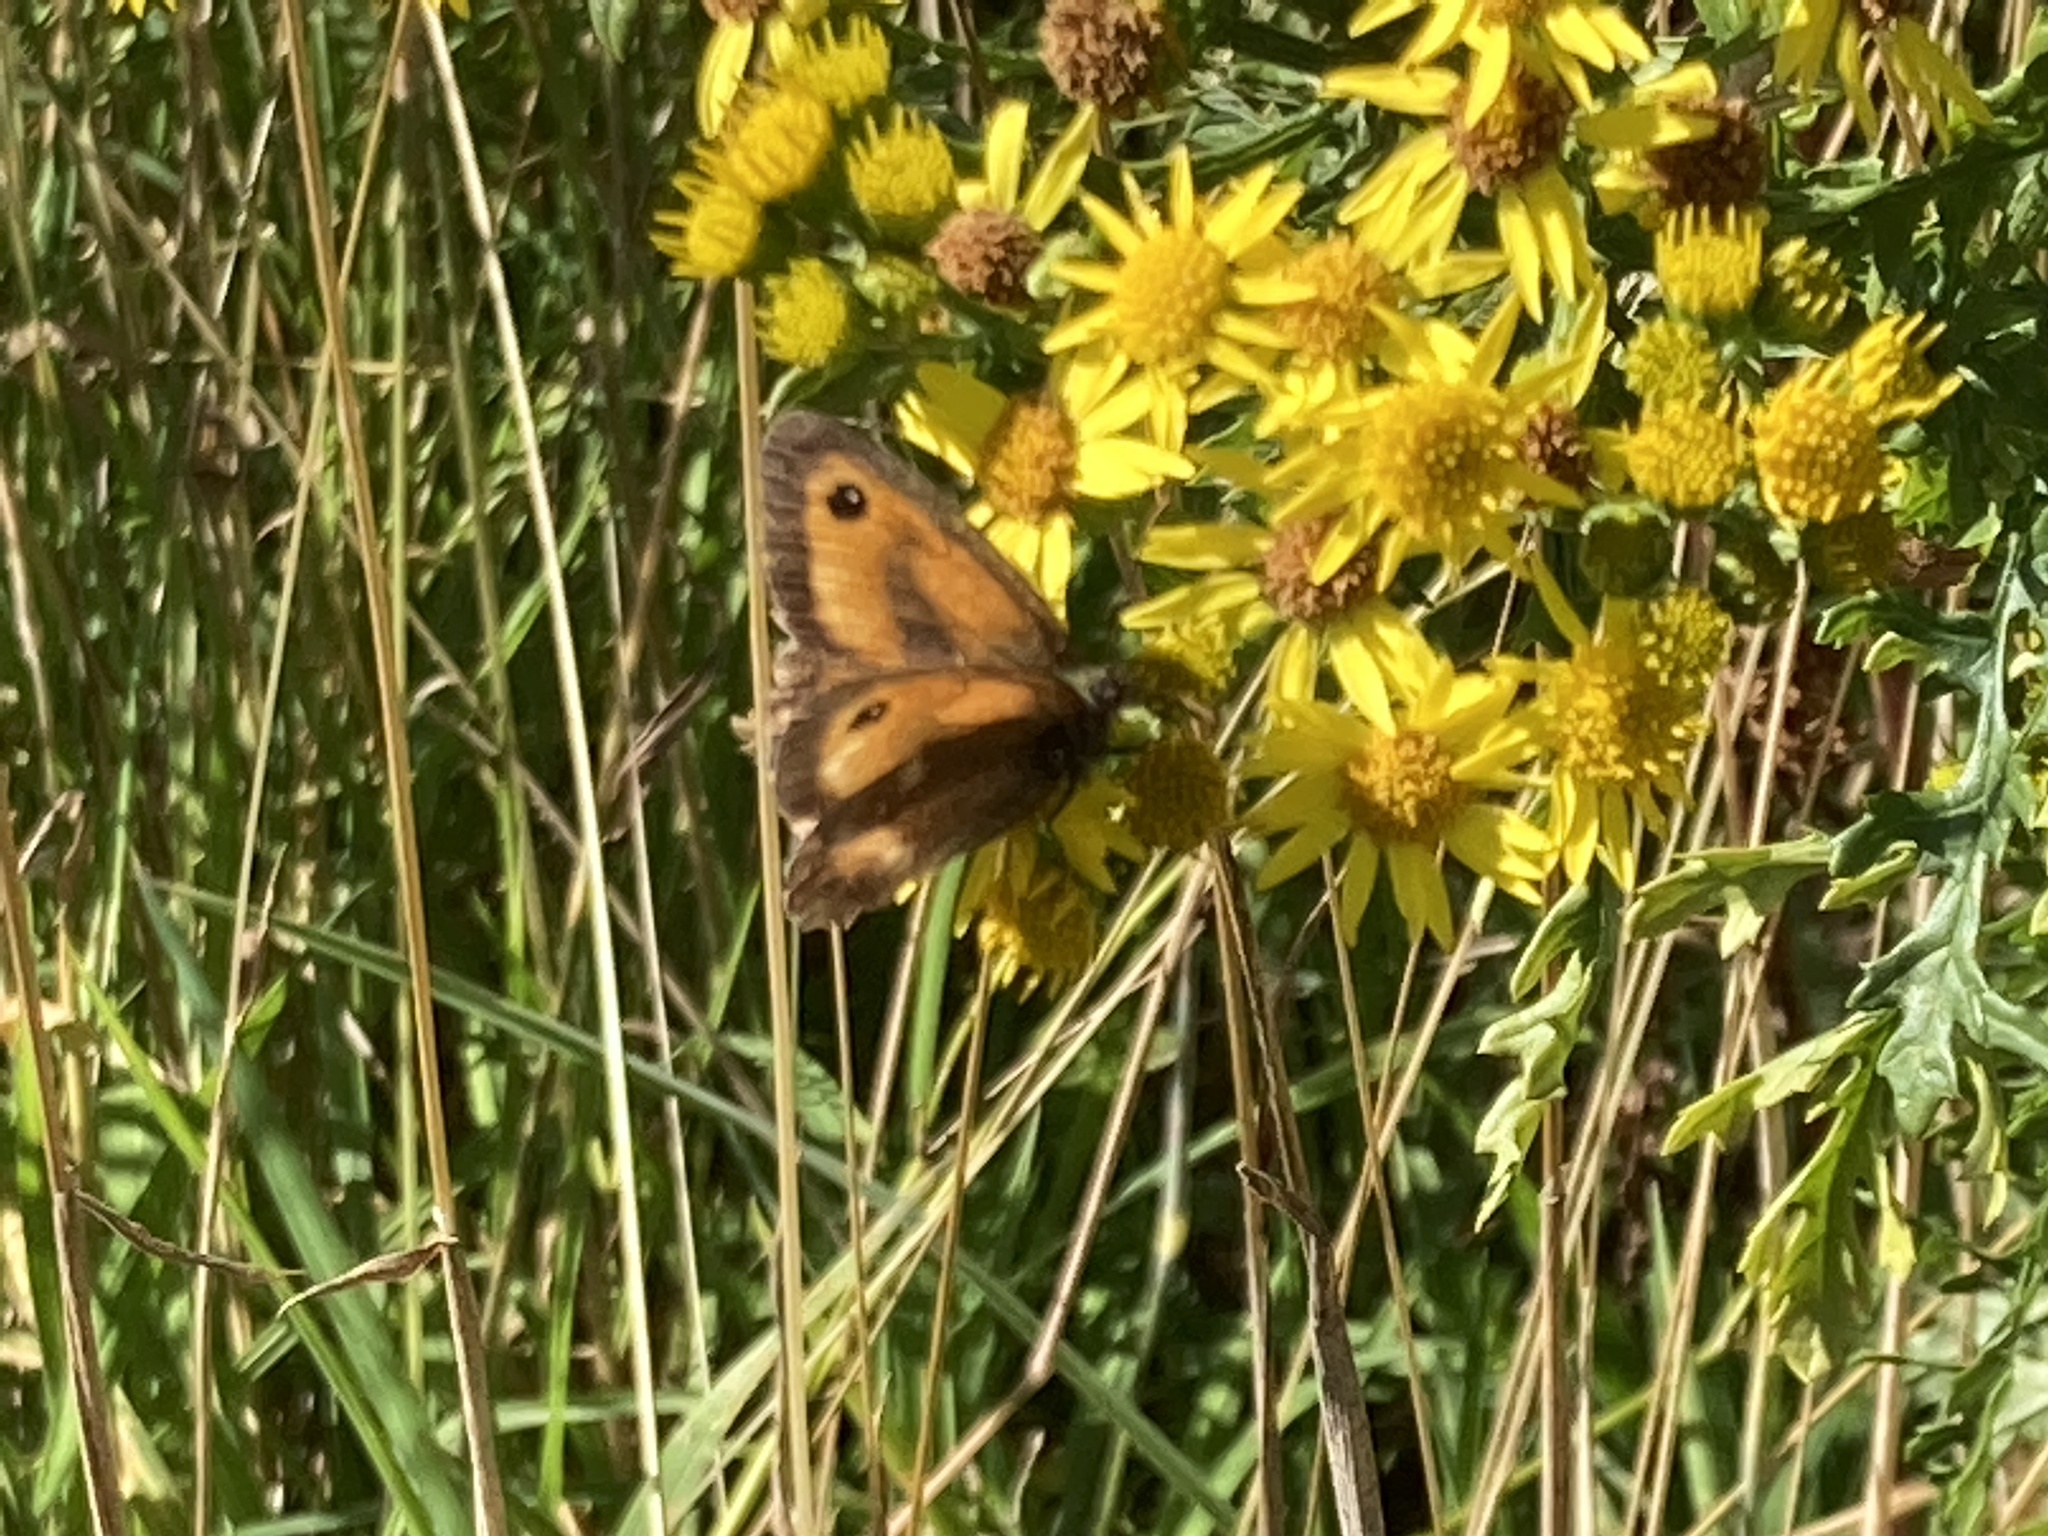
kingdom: Animalia
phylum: Arthropoda
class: Insecta
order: Lepidoptera
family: Nymphalidae
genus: Pyronia
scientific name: Pyronia tithonus
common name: Gatekeeper
